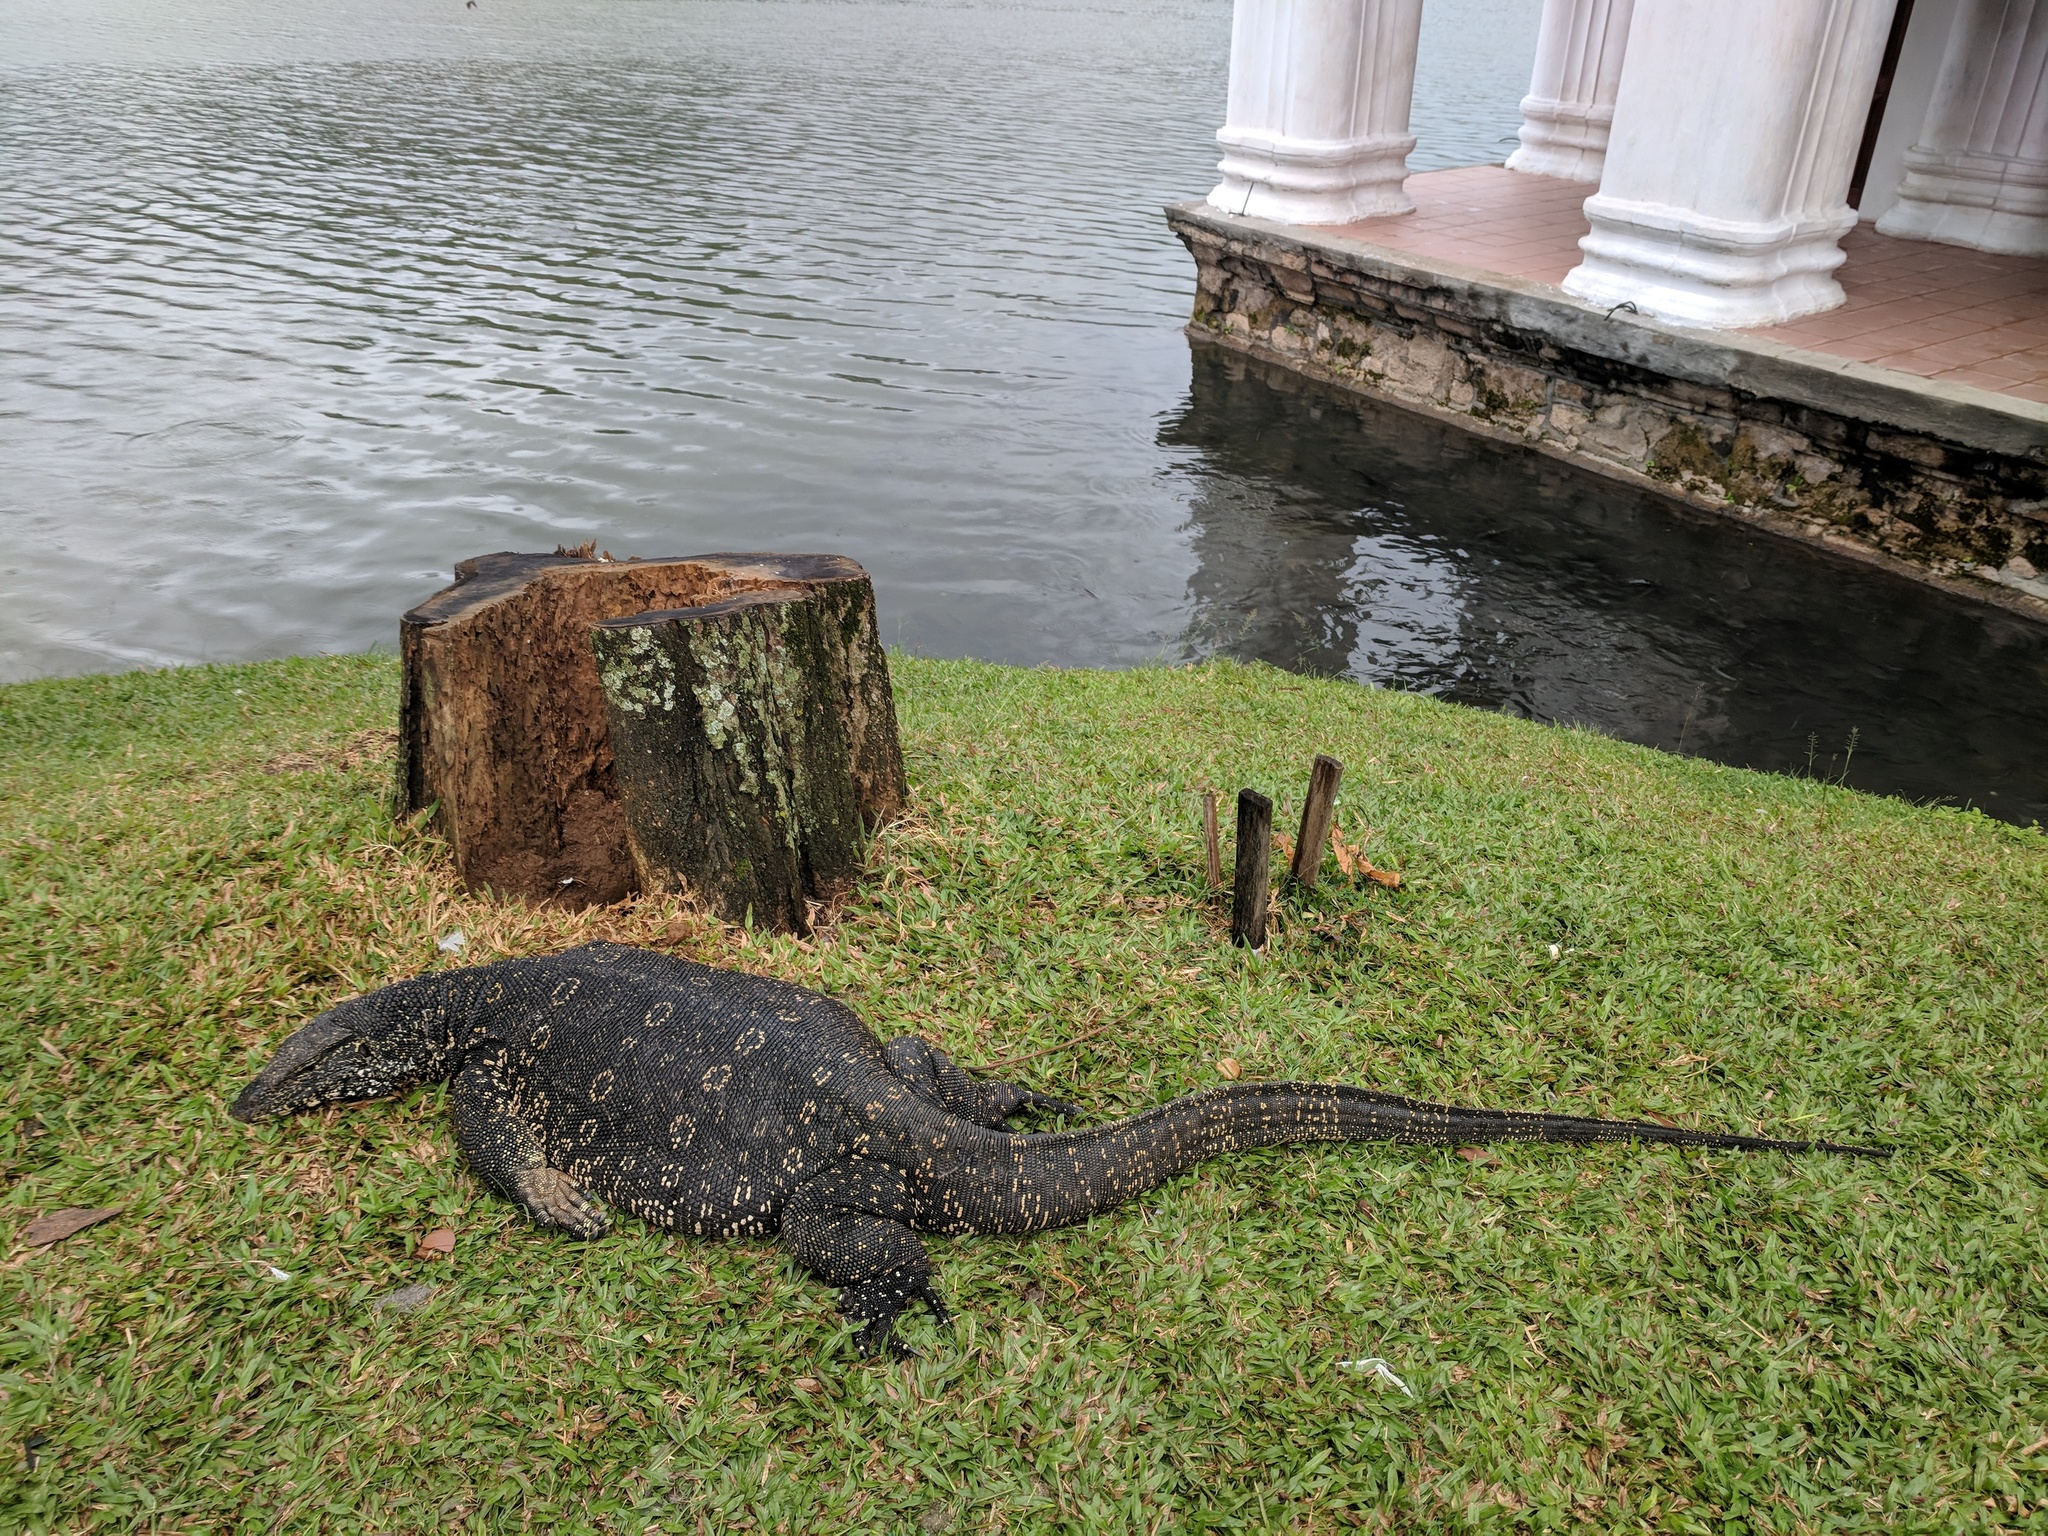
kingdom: Animalia
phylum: Chordata
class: Squamata
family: Varanidae
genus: Varanus
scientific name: Varanus salvator
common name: Common water monitor
